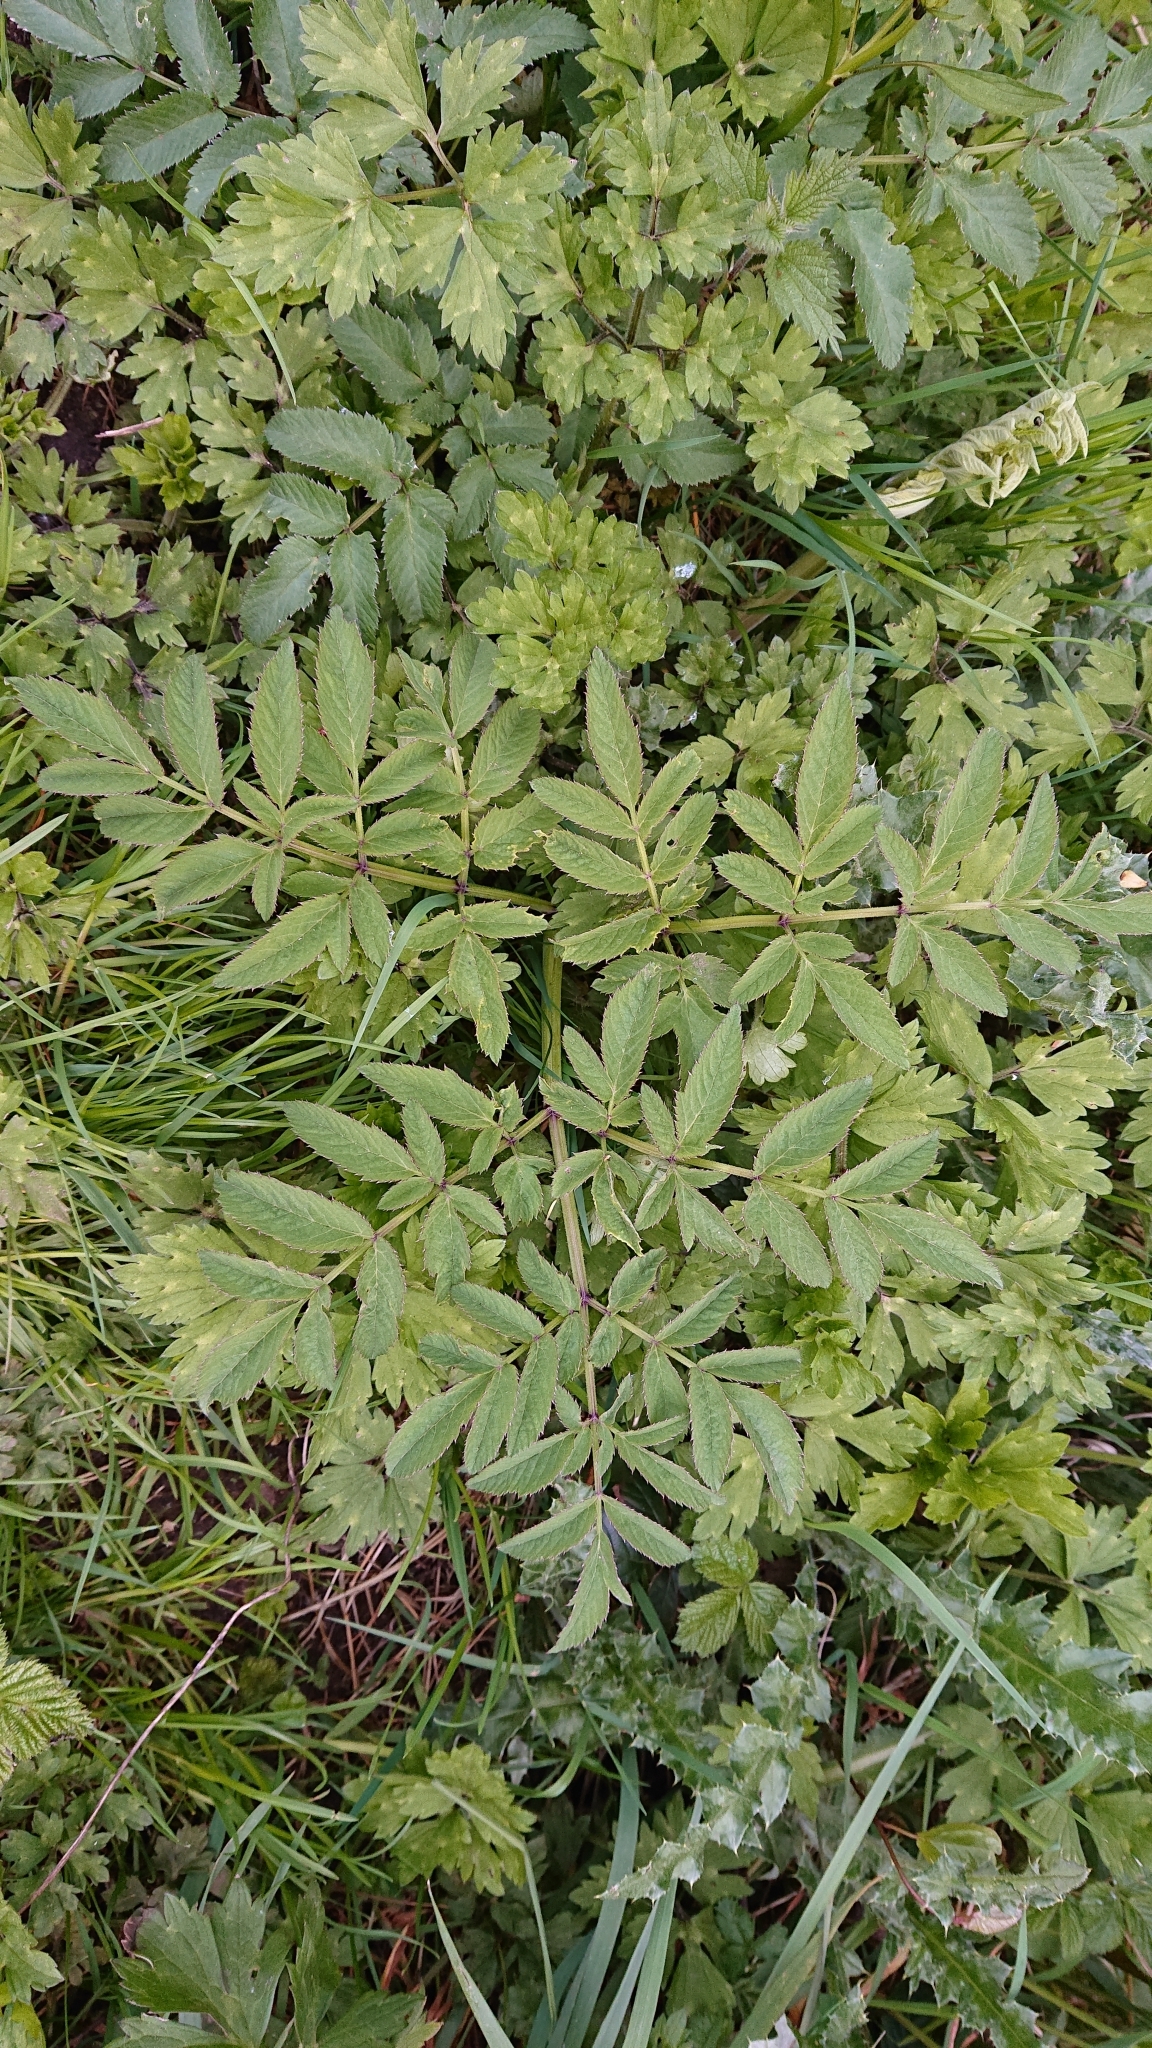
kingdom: Plantae
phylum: Tracheophyta
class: Magnoliopsida
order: Apiales
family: Apiaceae
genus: Angelica
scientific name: Angelica sylvestris
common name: Wild angelica
